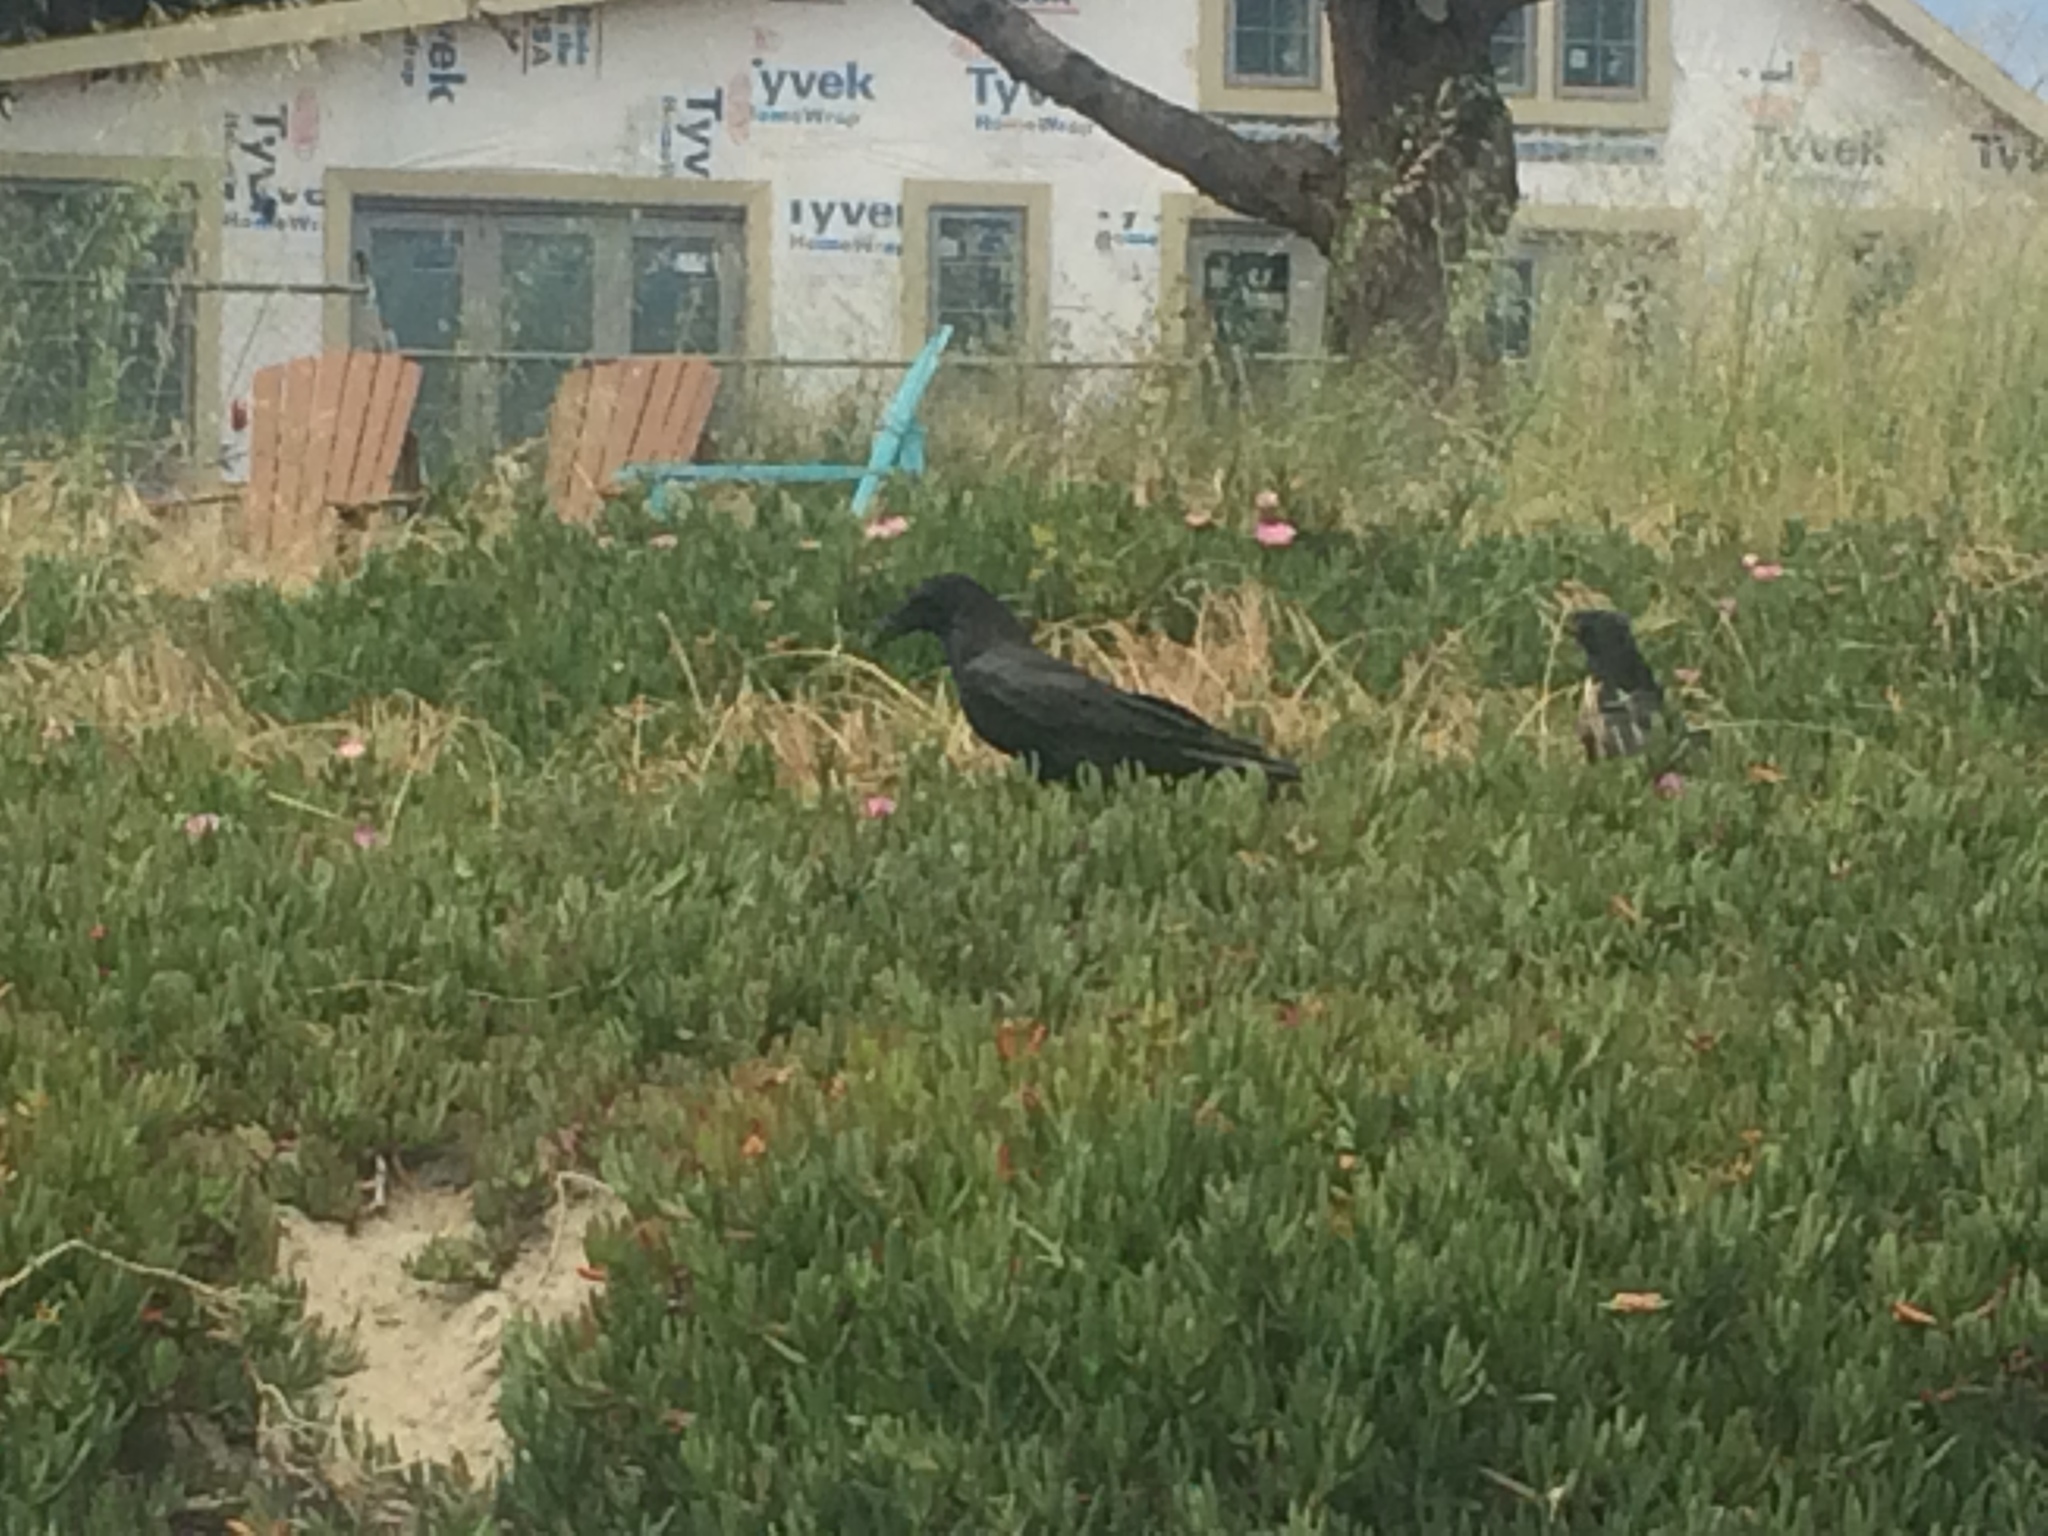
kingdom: Animalia
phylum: Chordata
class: Aves
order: Passeriformes
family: Corvidae
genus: Corvus
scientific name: Corvus corax
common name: Common raven
